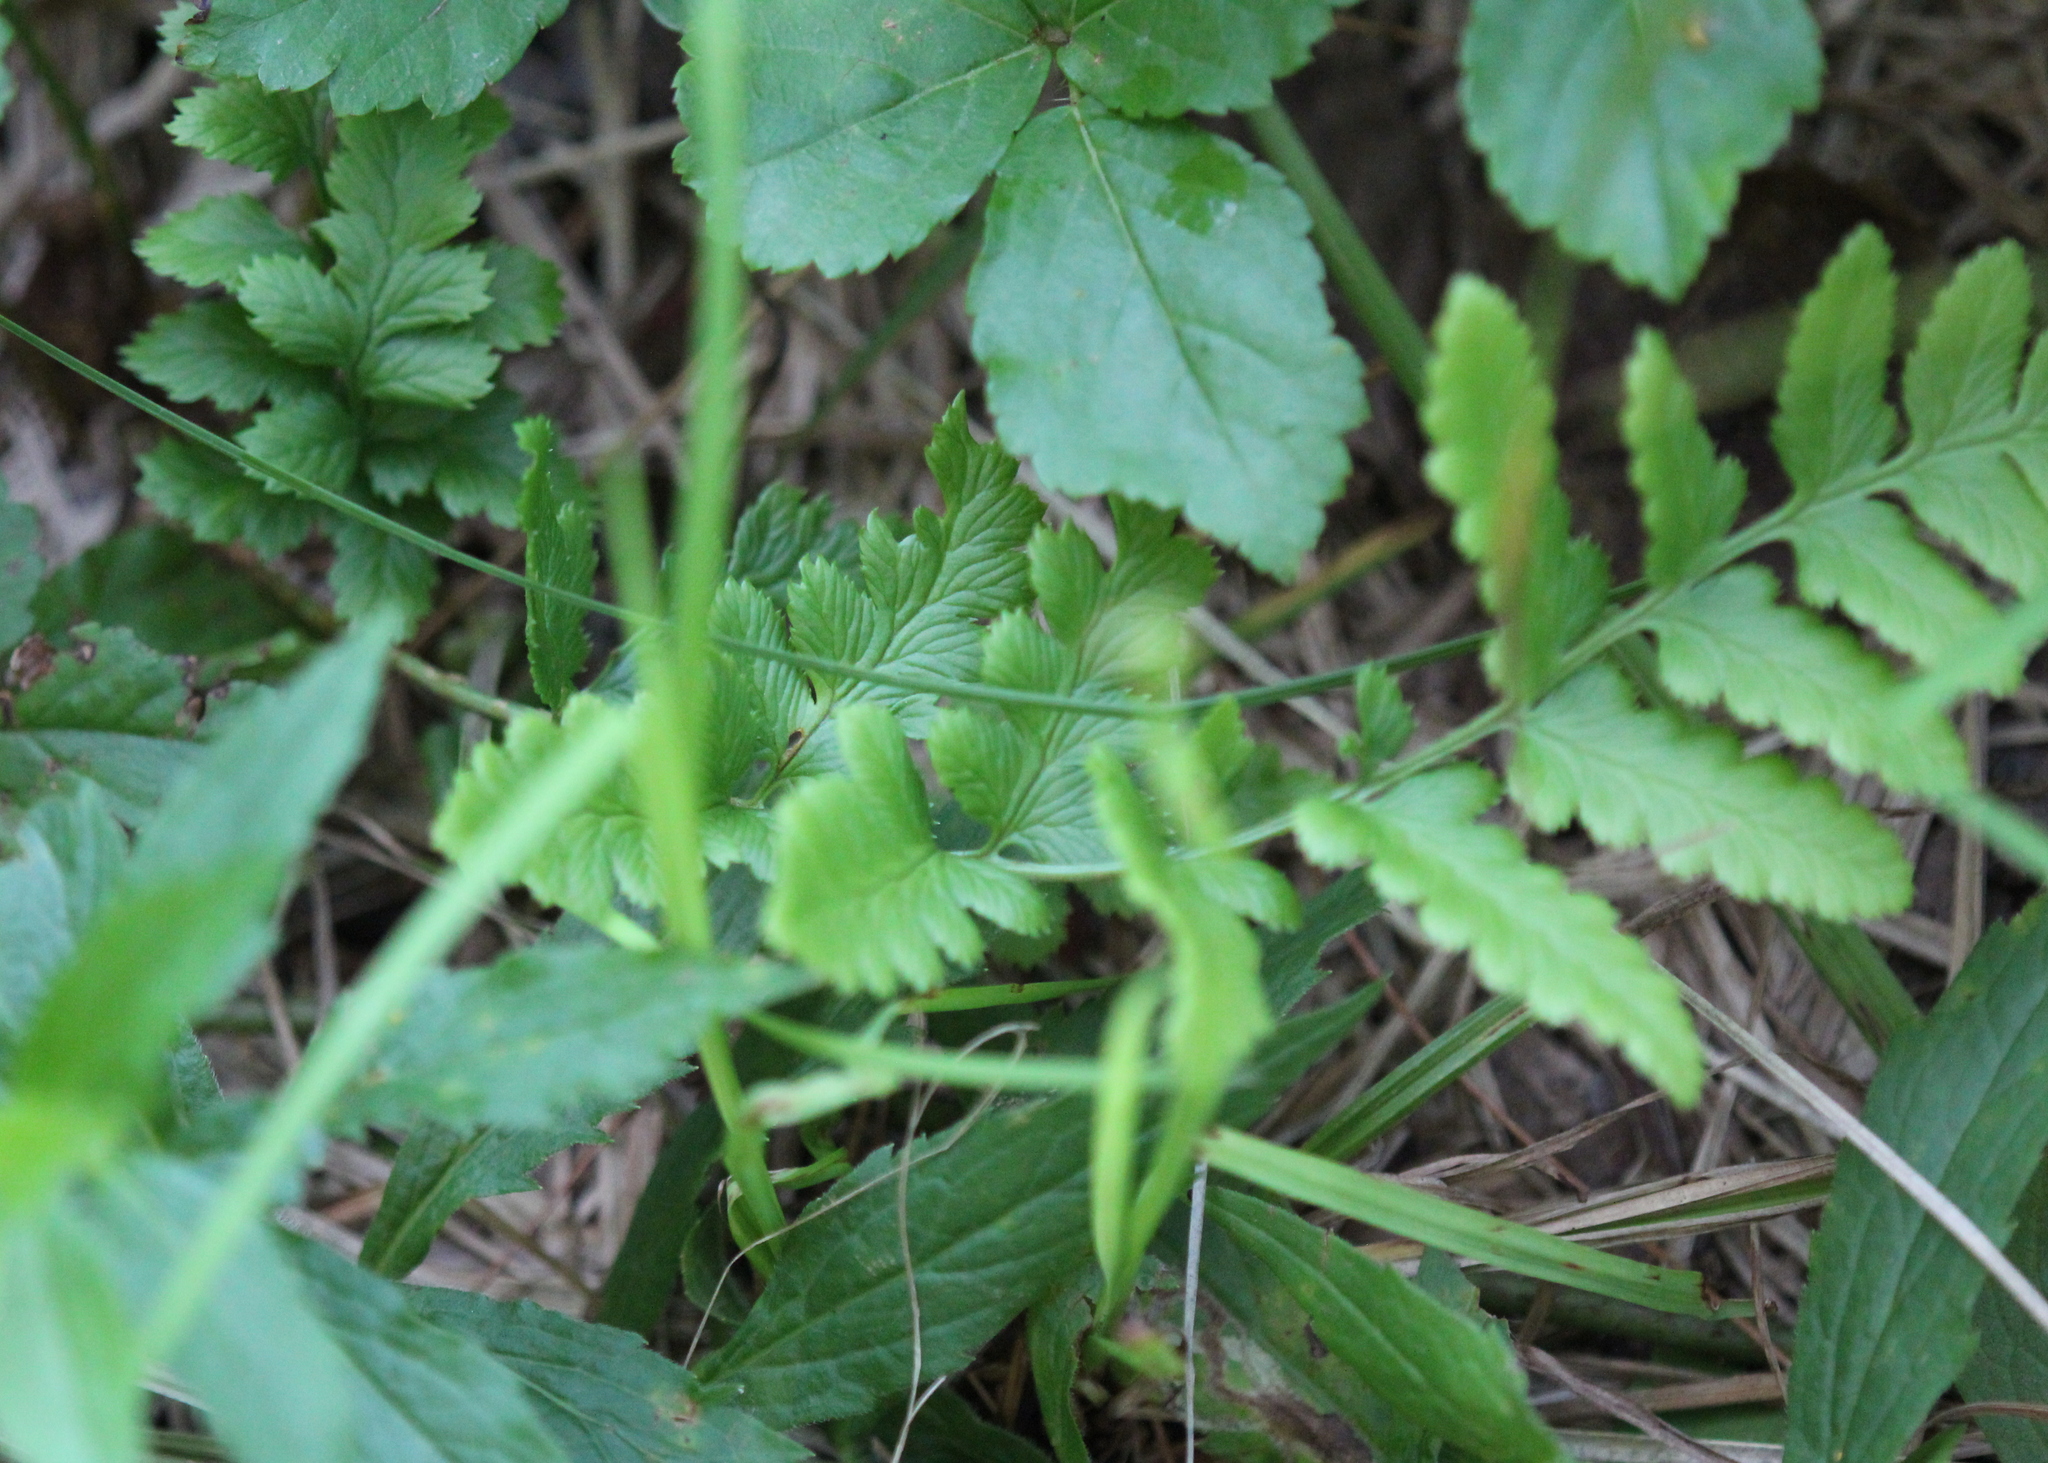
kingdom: Plantae
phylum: Tracheophyta
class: Polypodiopsida
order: Polypodiales
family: Dryopteridaceae
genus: Dryopteris
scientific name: Dryopteris cristata
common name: Crested wood fern
